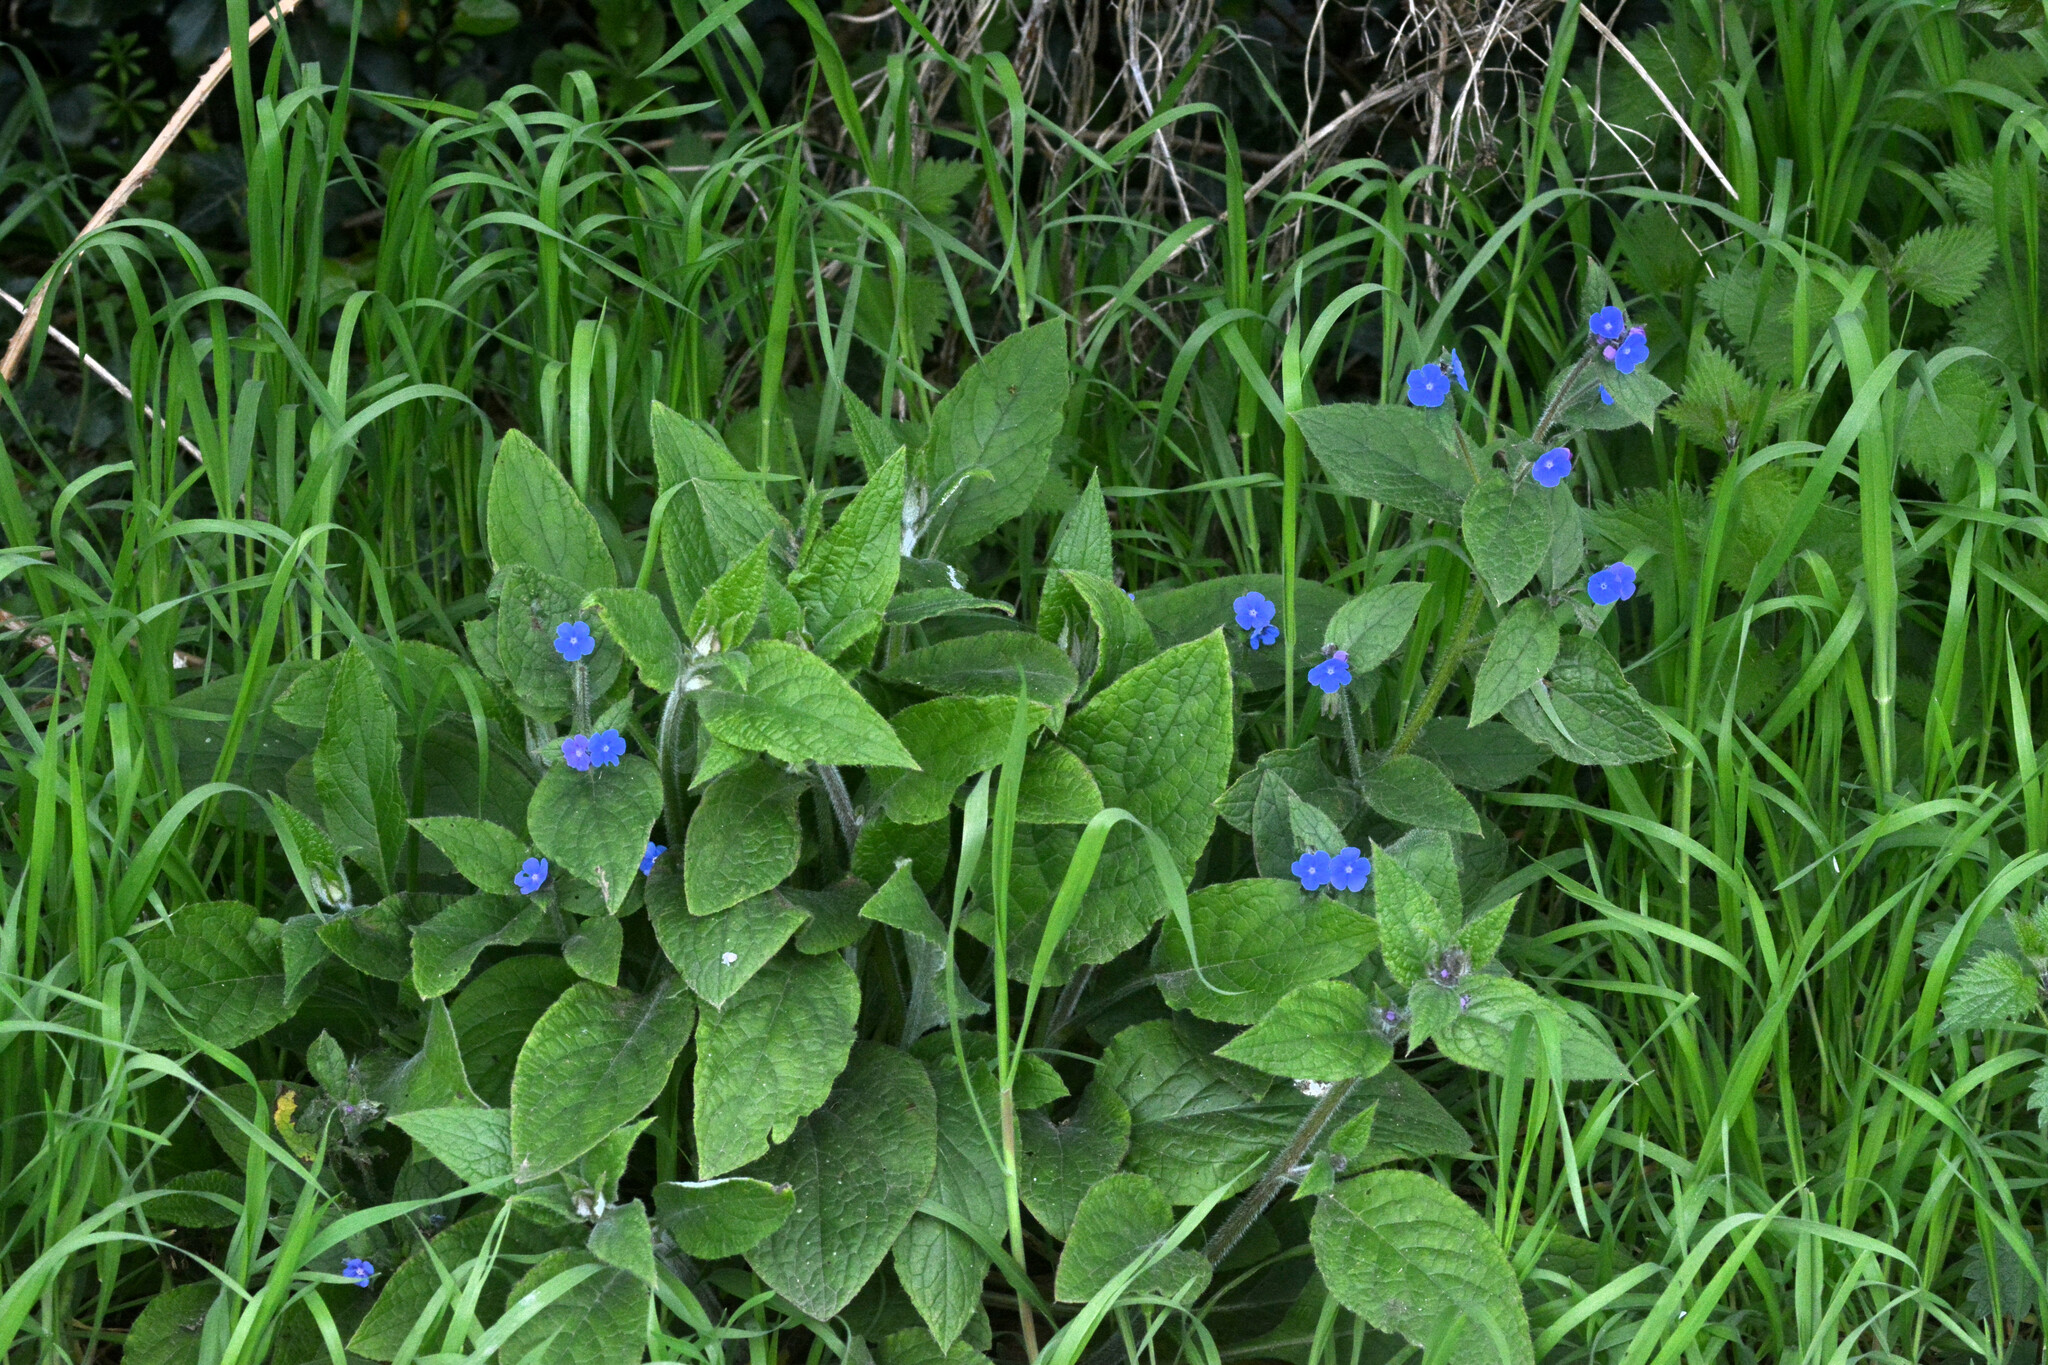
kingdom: Plantae
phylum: Tracheophyta
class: Magnoliopsida
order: Boraginales
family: Boraginaceae
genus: Pentaglottis
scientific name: Pentaglottis sempervirens
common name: Green alkanet
